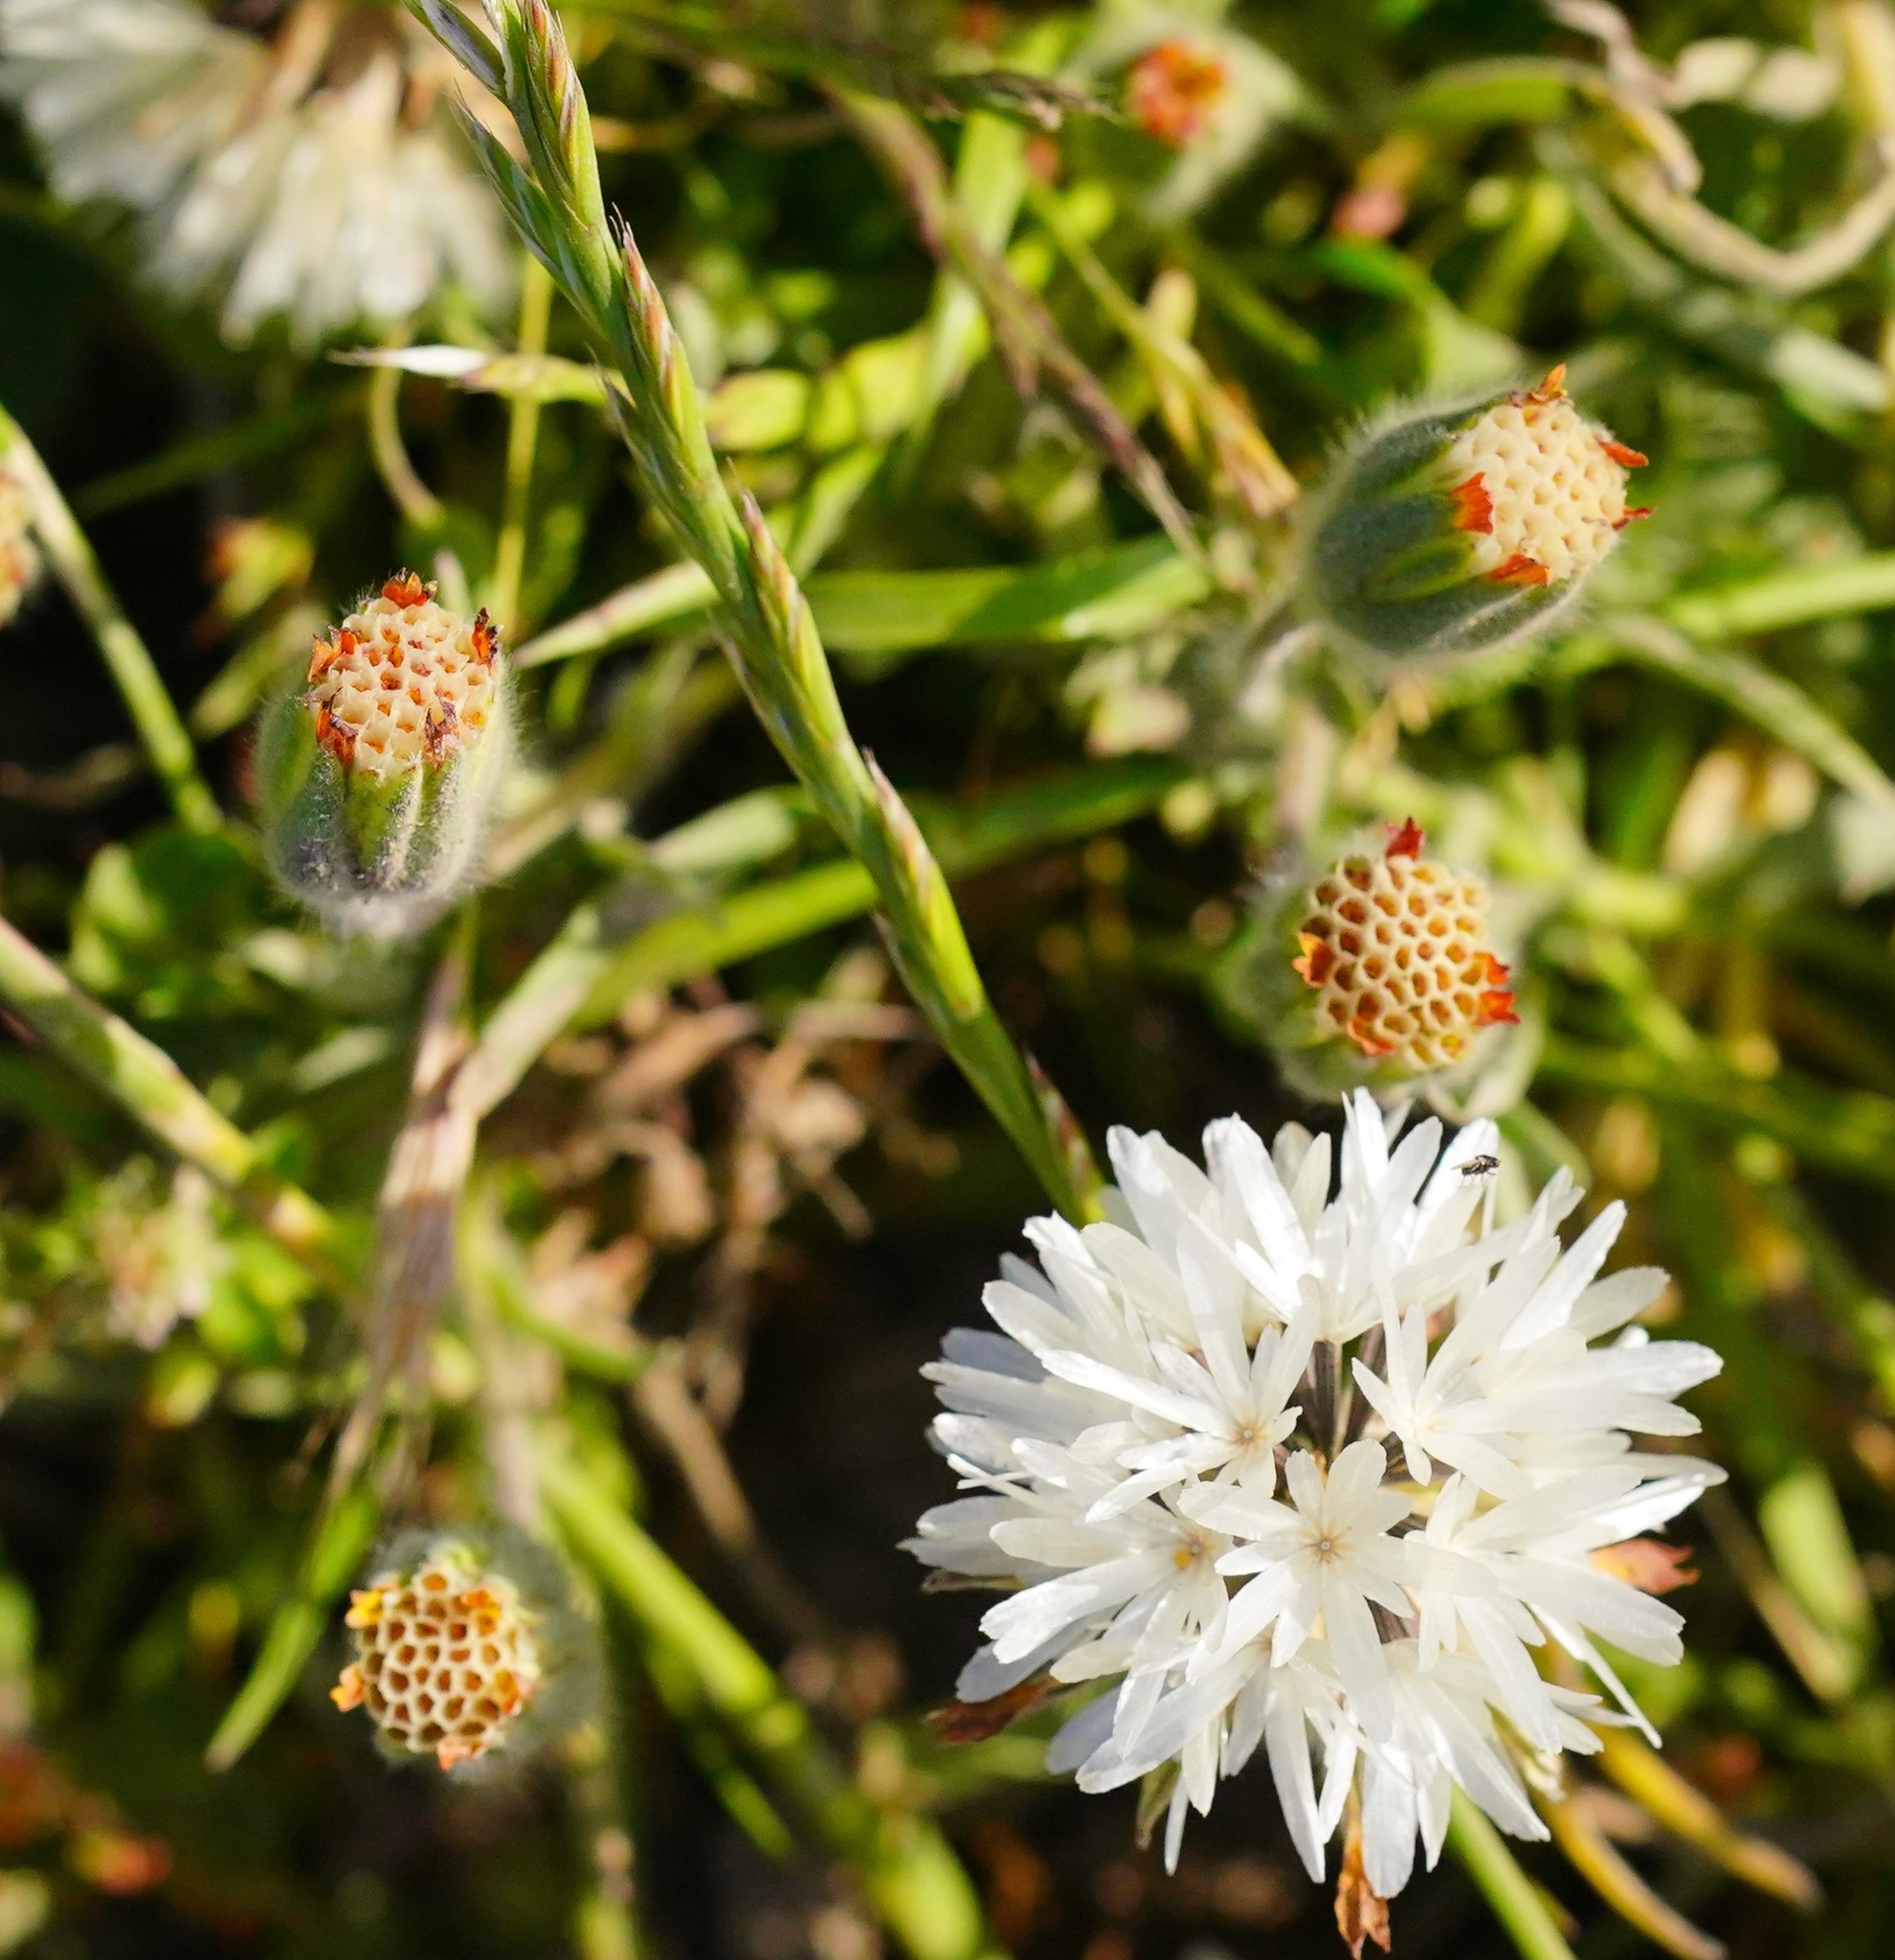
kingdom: Plantae
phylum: Tracheophyta
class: Magnoliopsida
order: Asterales
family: Asteraceae
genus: Achyrachaena
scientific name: Achyrachaena mollis
